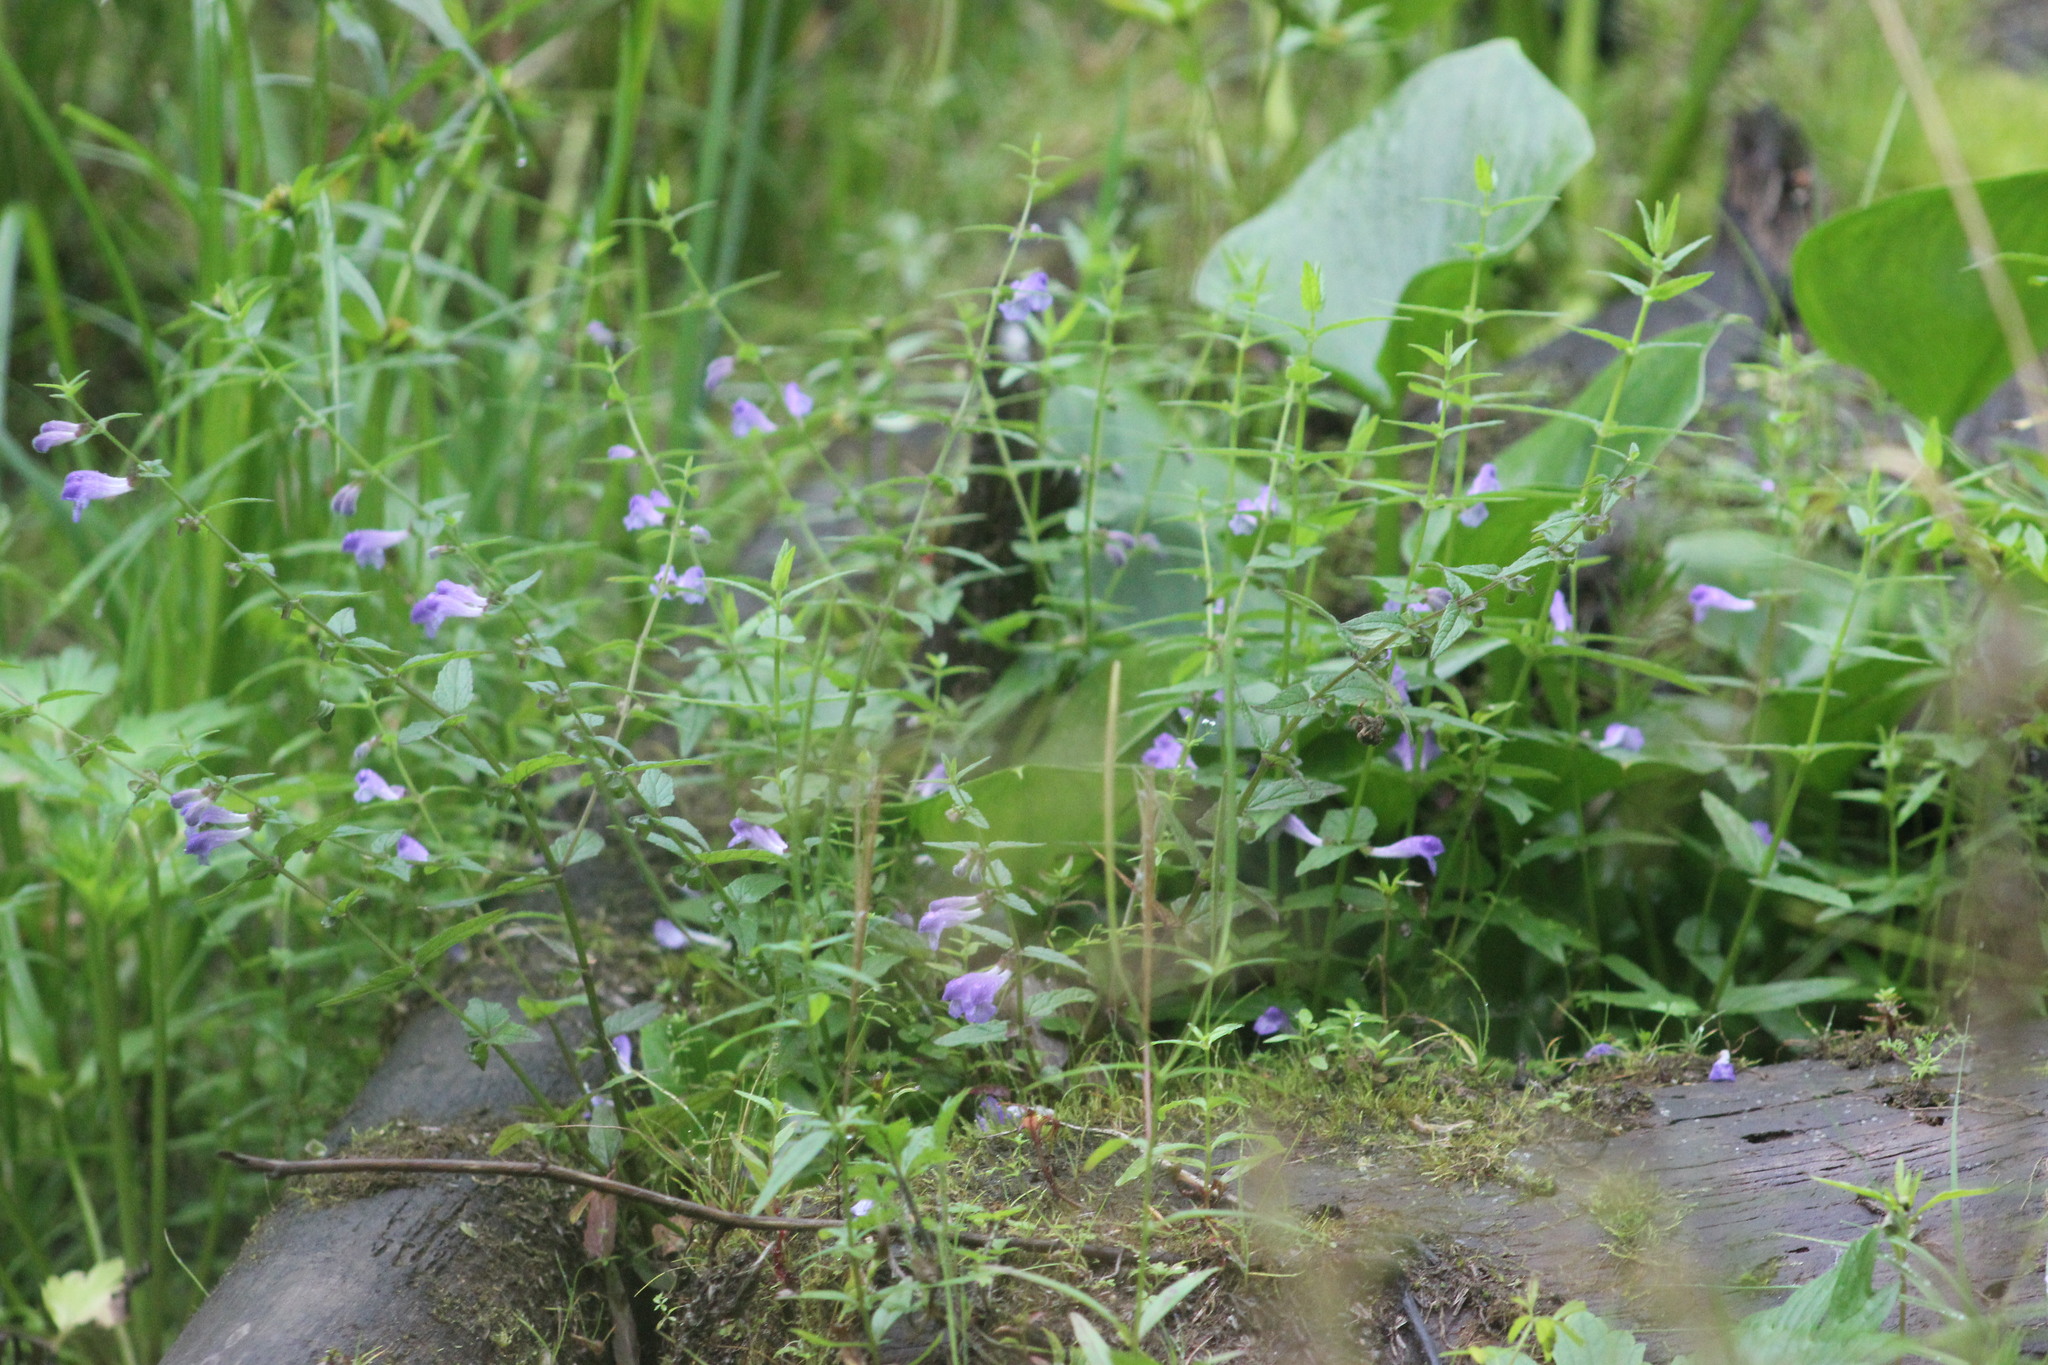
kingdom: Plantae
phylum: Tracheophyta
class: Magnoliopsida
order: Lamiales
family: Lamiaceae
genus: Scutellaria
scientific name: Scutellaria galericulata
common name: Skullcap
